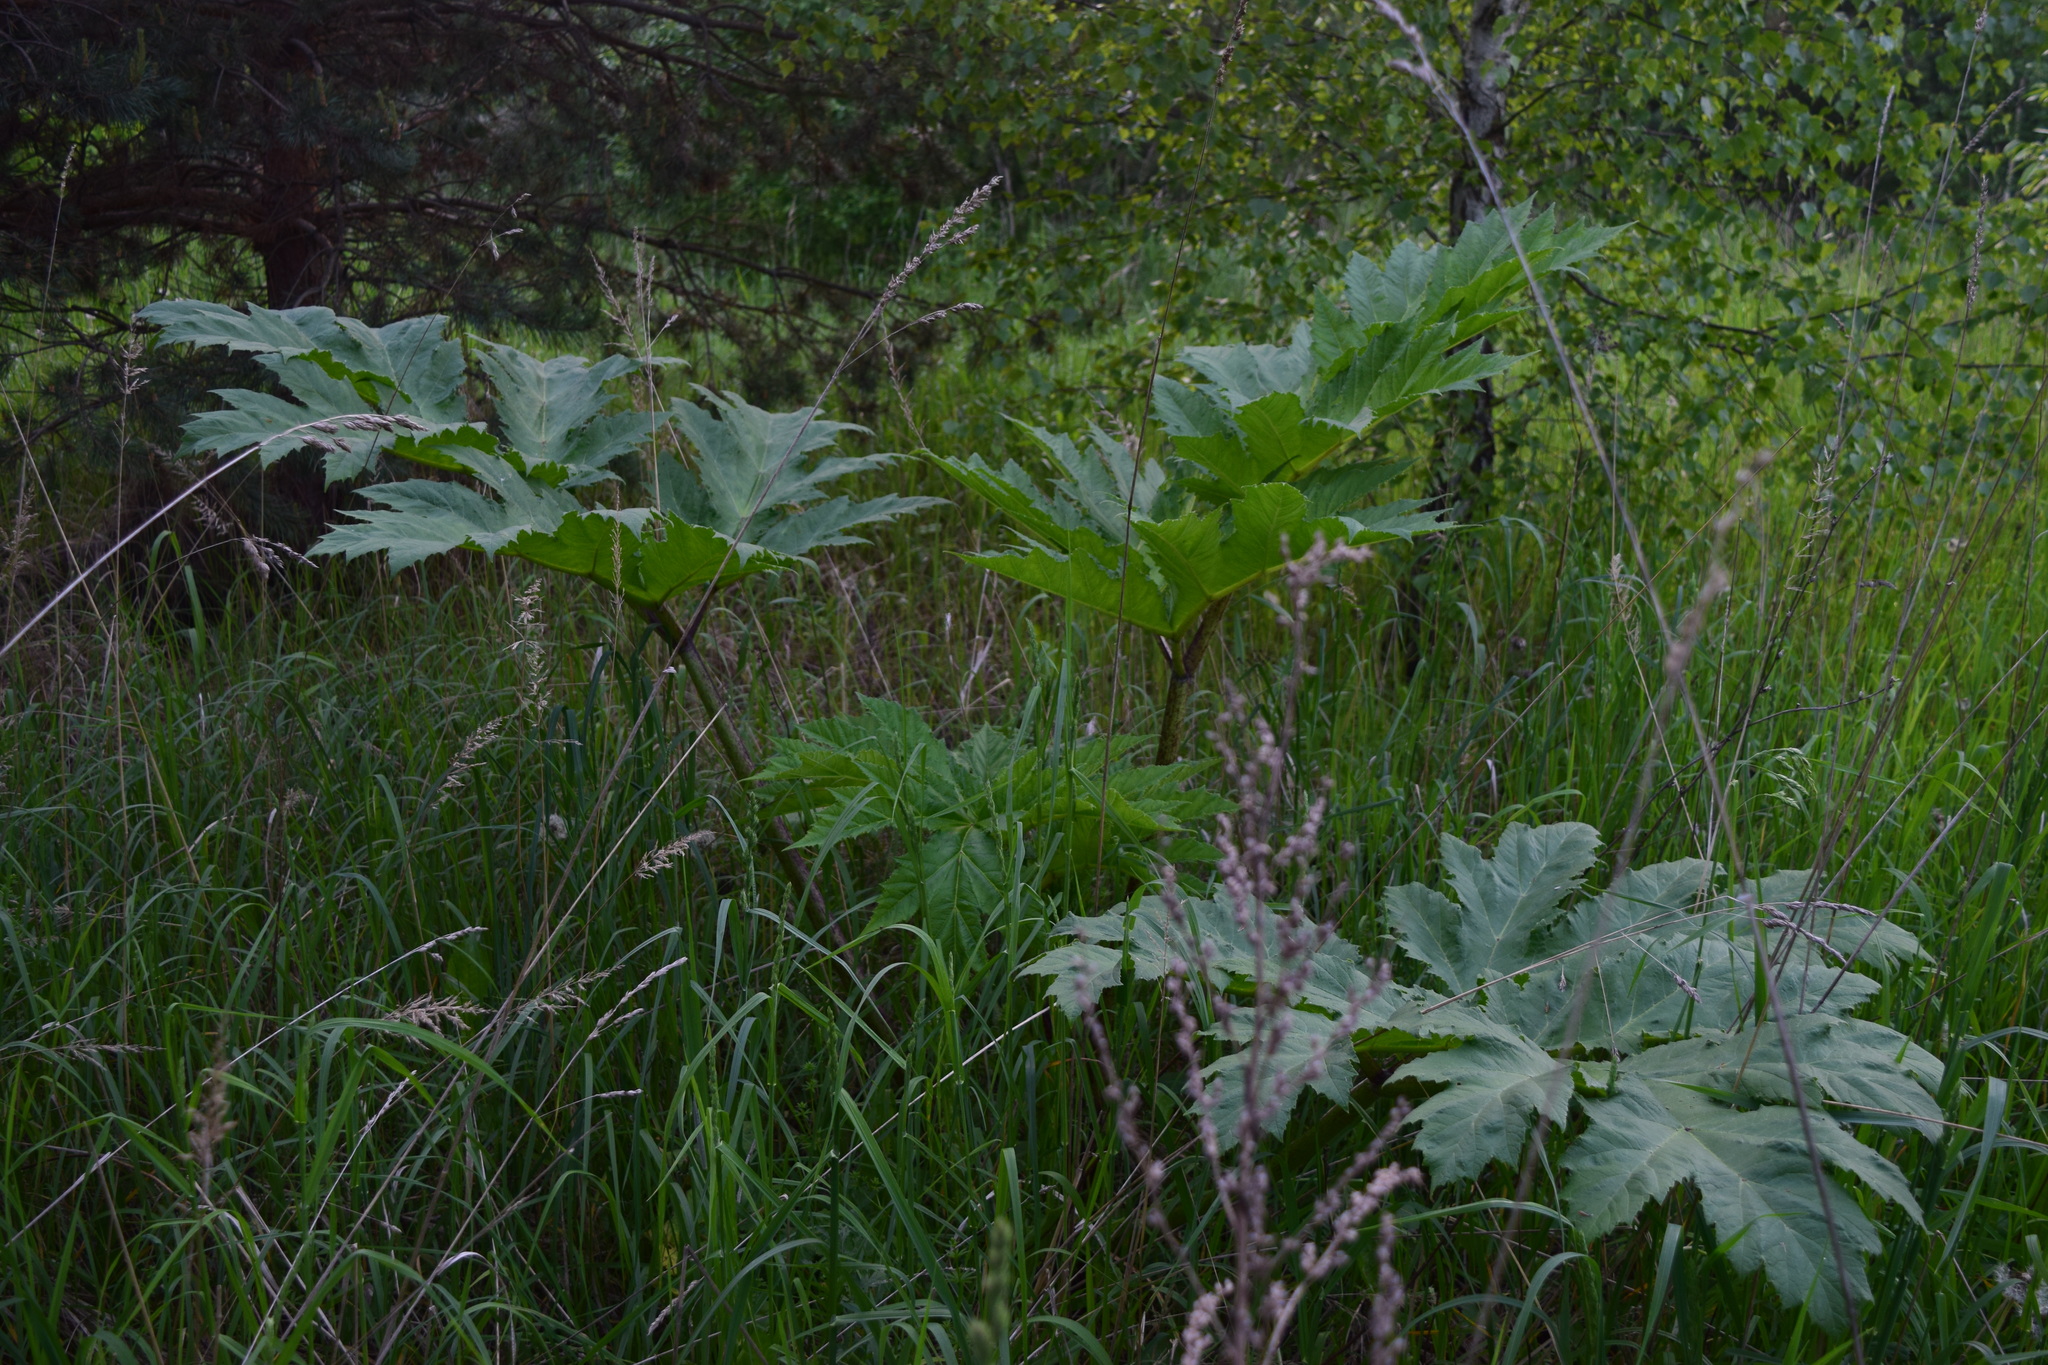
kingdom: Plantae
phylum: Tracheophyta
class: Magnoliopsida
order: Apiales
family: Apiaceae
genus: Heracleum
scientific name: Heracleum sosnowskyi
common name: Sosnowsky's hogweed
